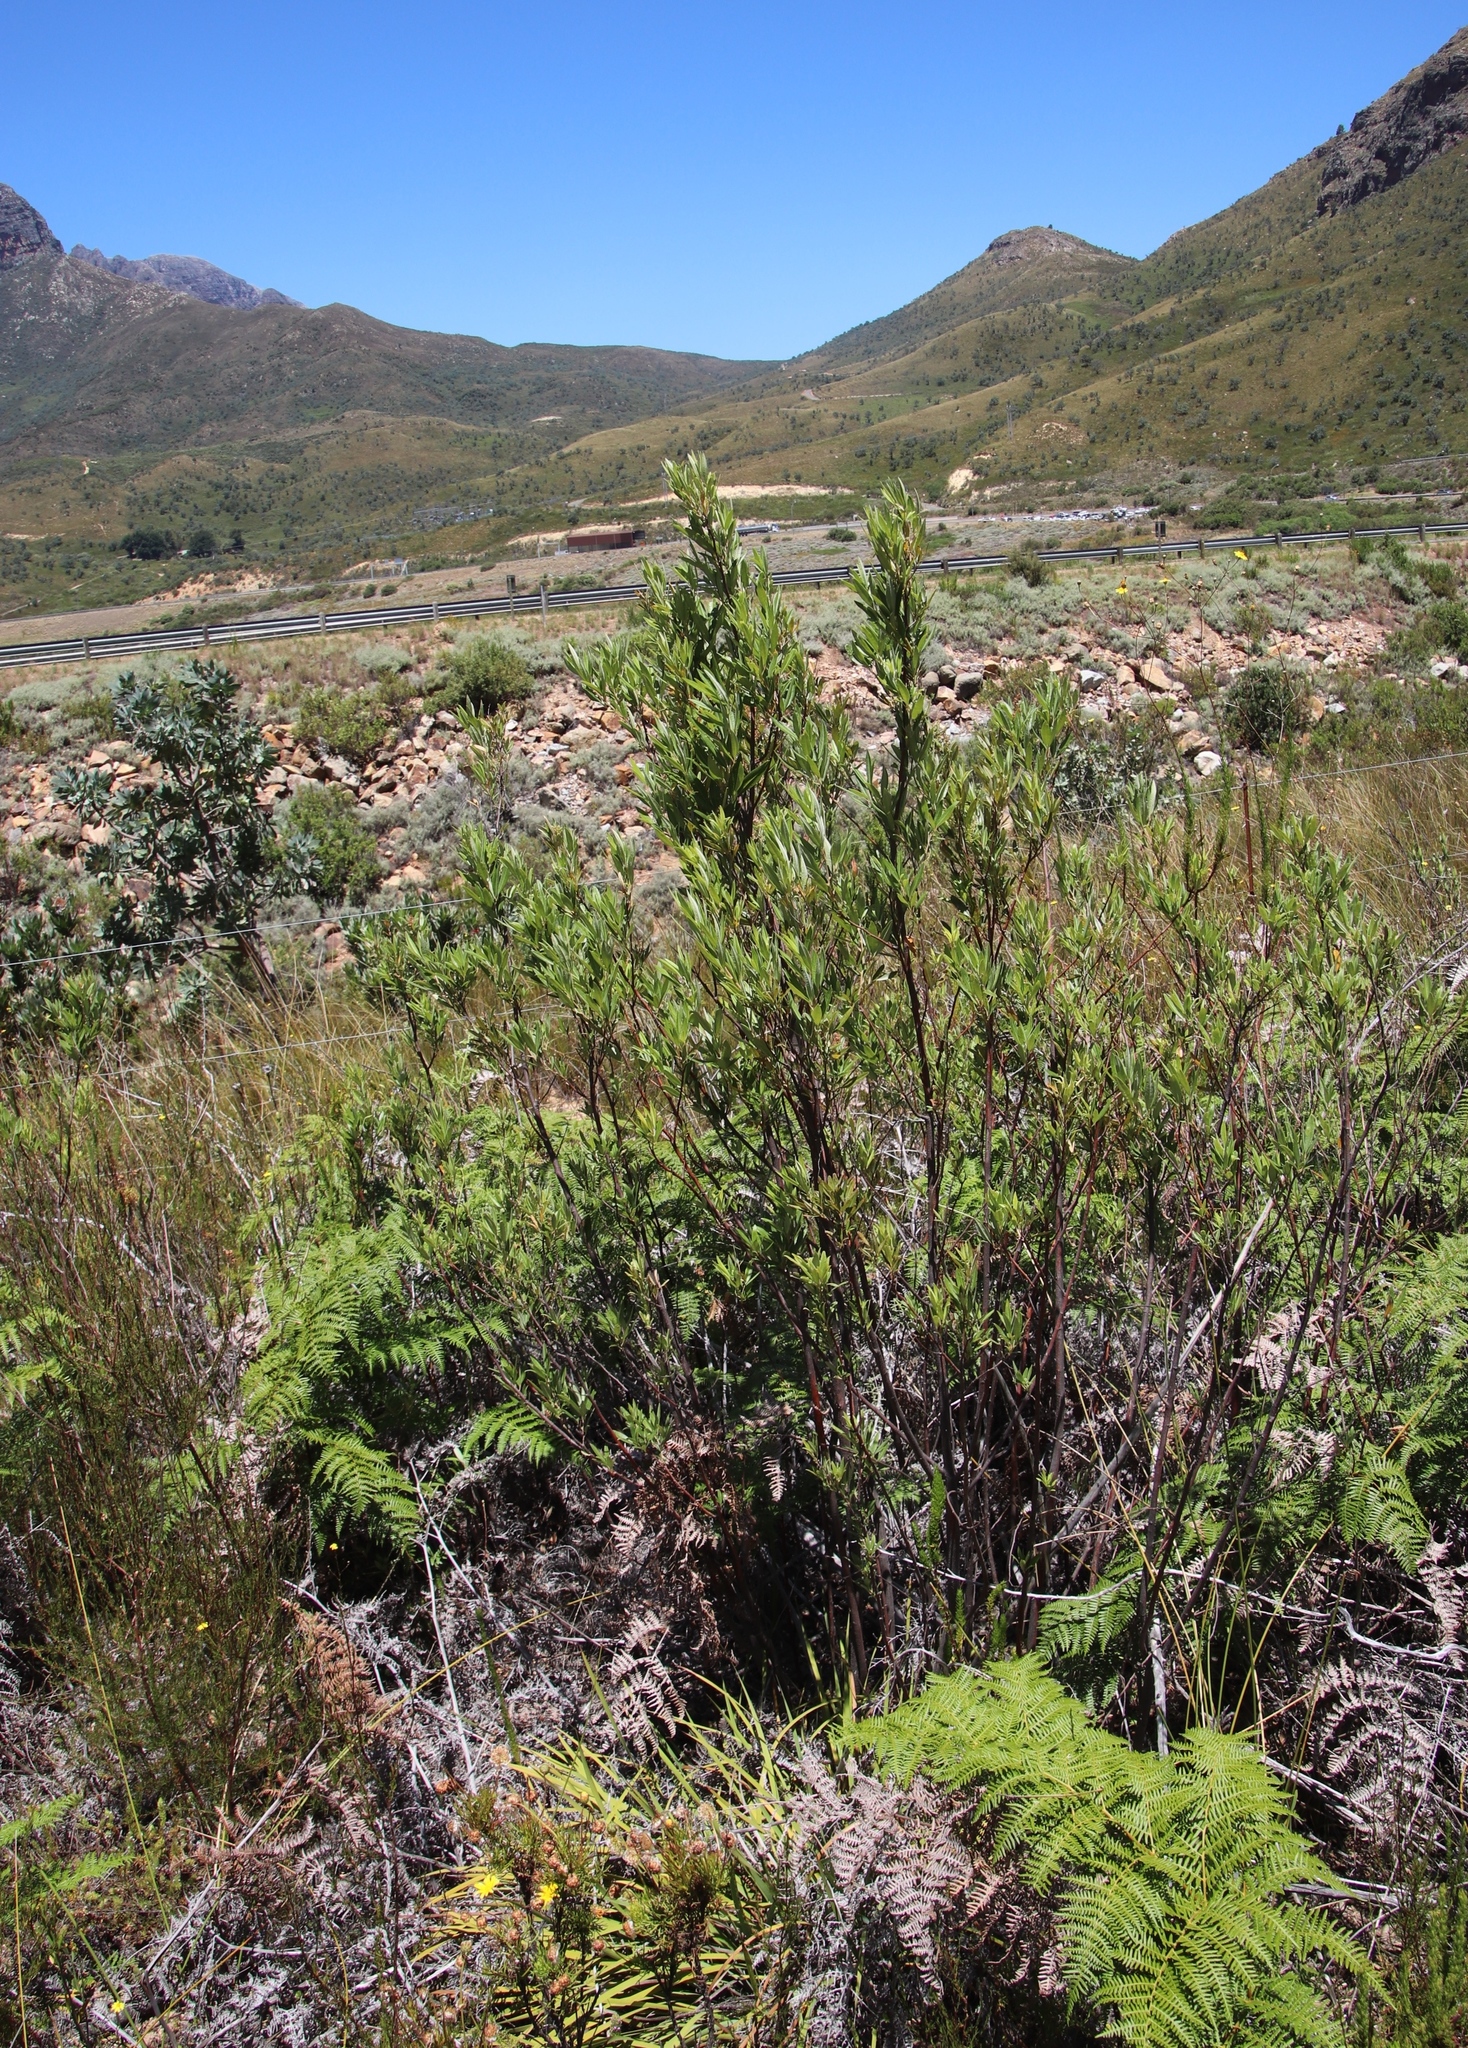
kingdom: Plantae
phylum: Tracheophyta
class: Magnoliopsida
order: Sapindales
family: Anacardiaceae
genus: Searsia
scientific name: Searsia angustifolia
